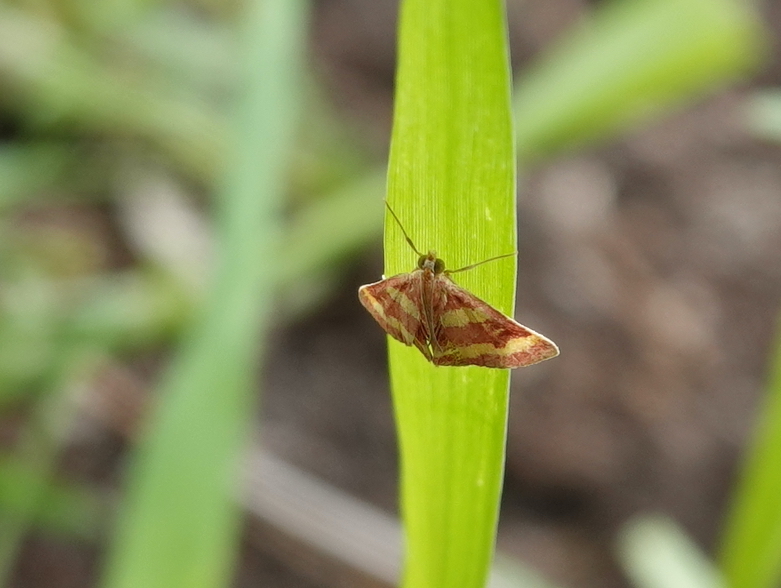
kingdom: Animalia
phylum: Arthropoda
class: Insecta
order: Lepidoptera
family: Crambidae
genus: Pyrausta
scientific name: Pyrausta tyralis
